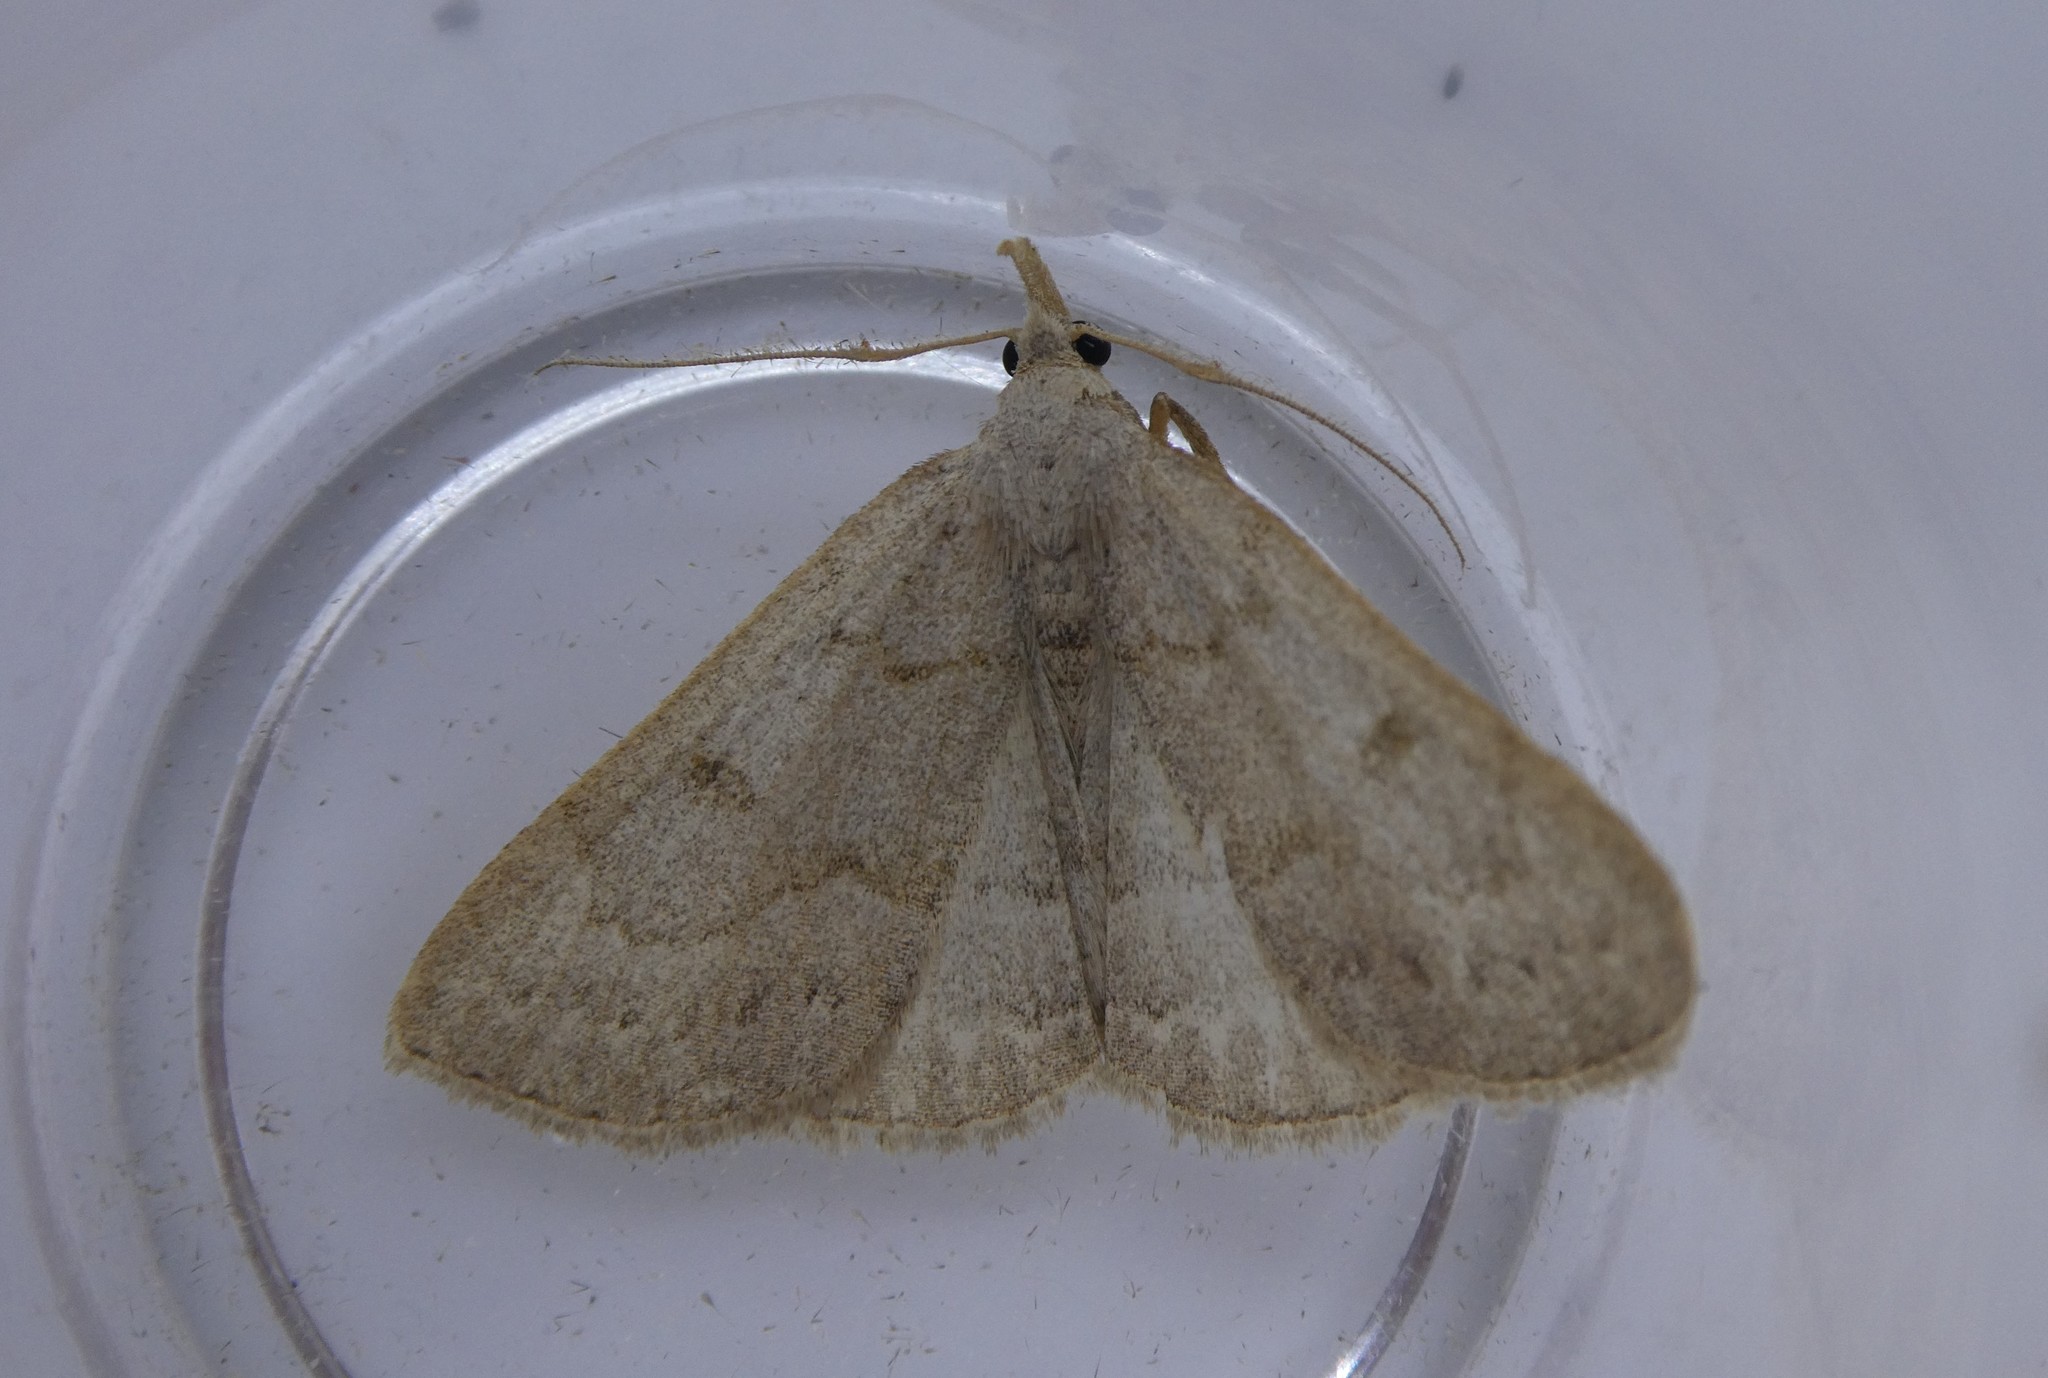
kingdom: Animalia
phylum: Arthropoda
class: Insecta
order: Lepidoptera
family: Erebidae
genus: Macrochilo
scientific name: Macrochilo morbidalis
